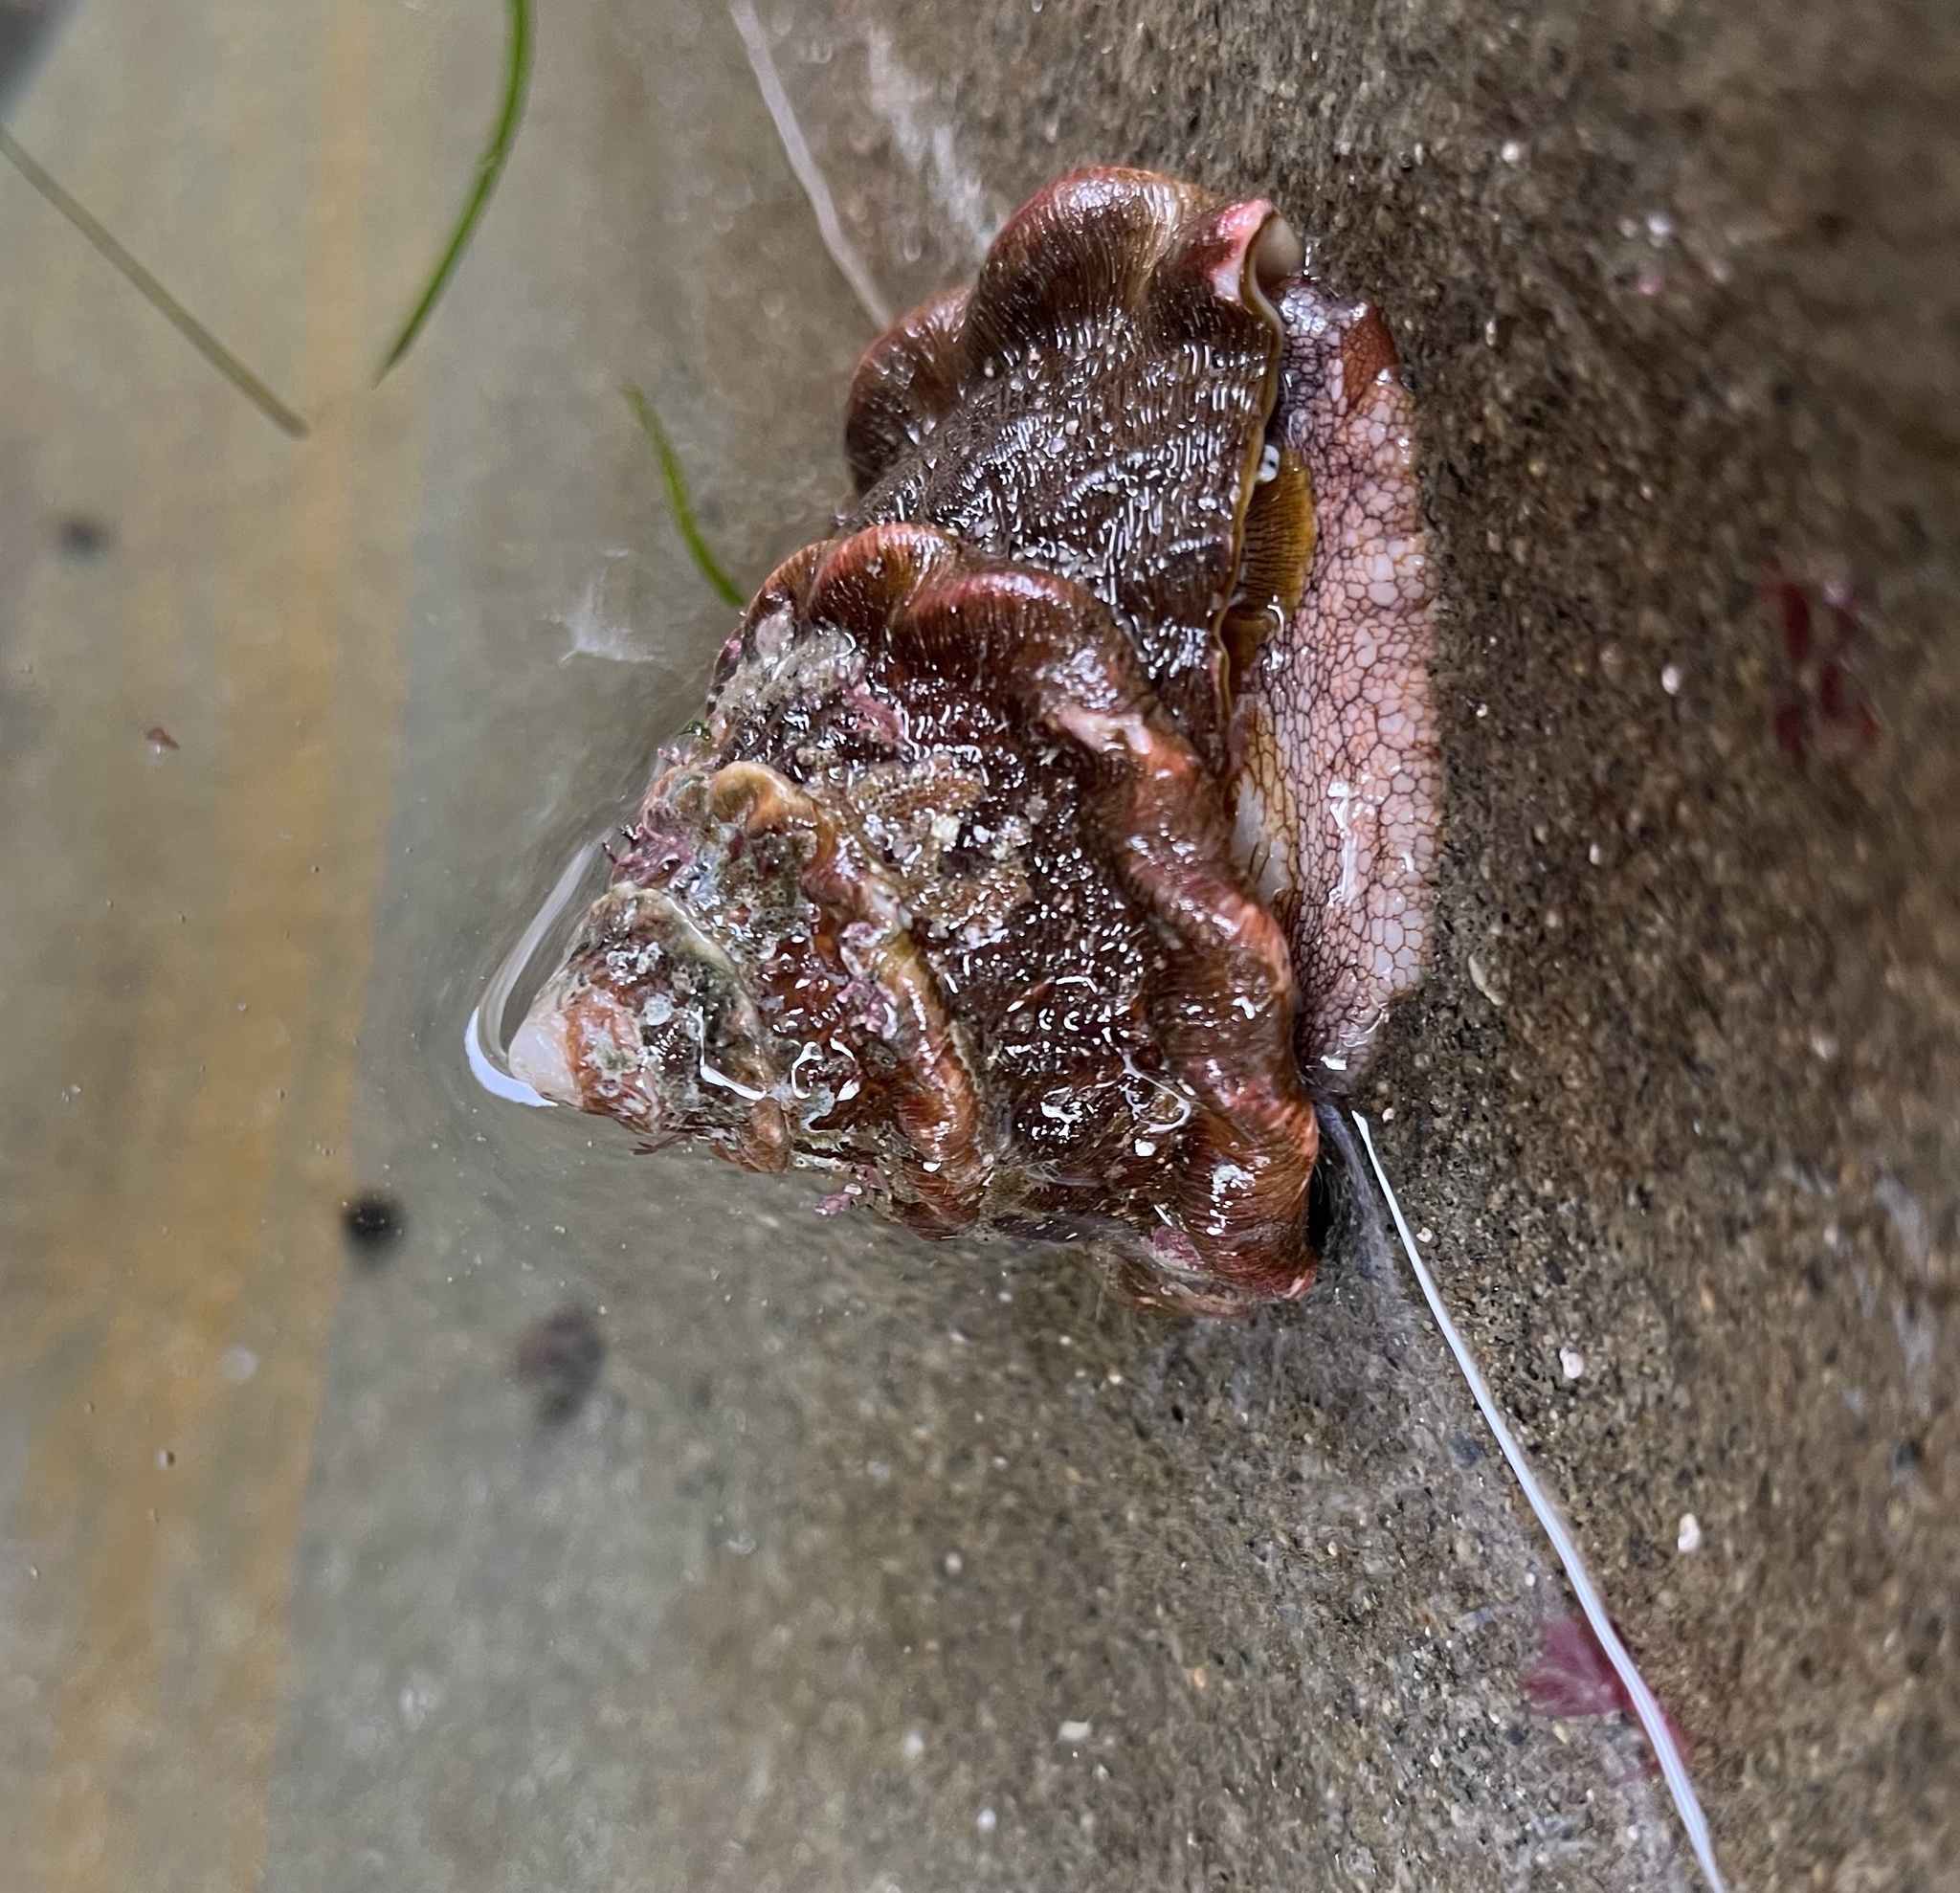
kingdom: Animalia
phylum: Mollusca
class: Gastropoda
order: Trochida
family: Turbinidae
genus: Megastraea
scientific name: Megastraea undosa
